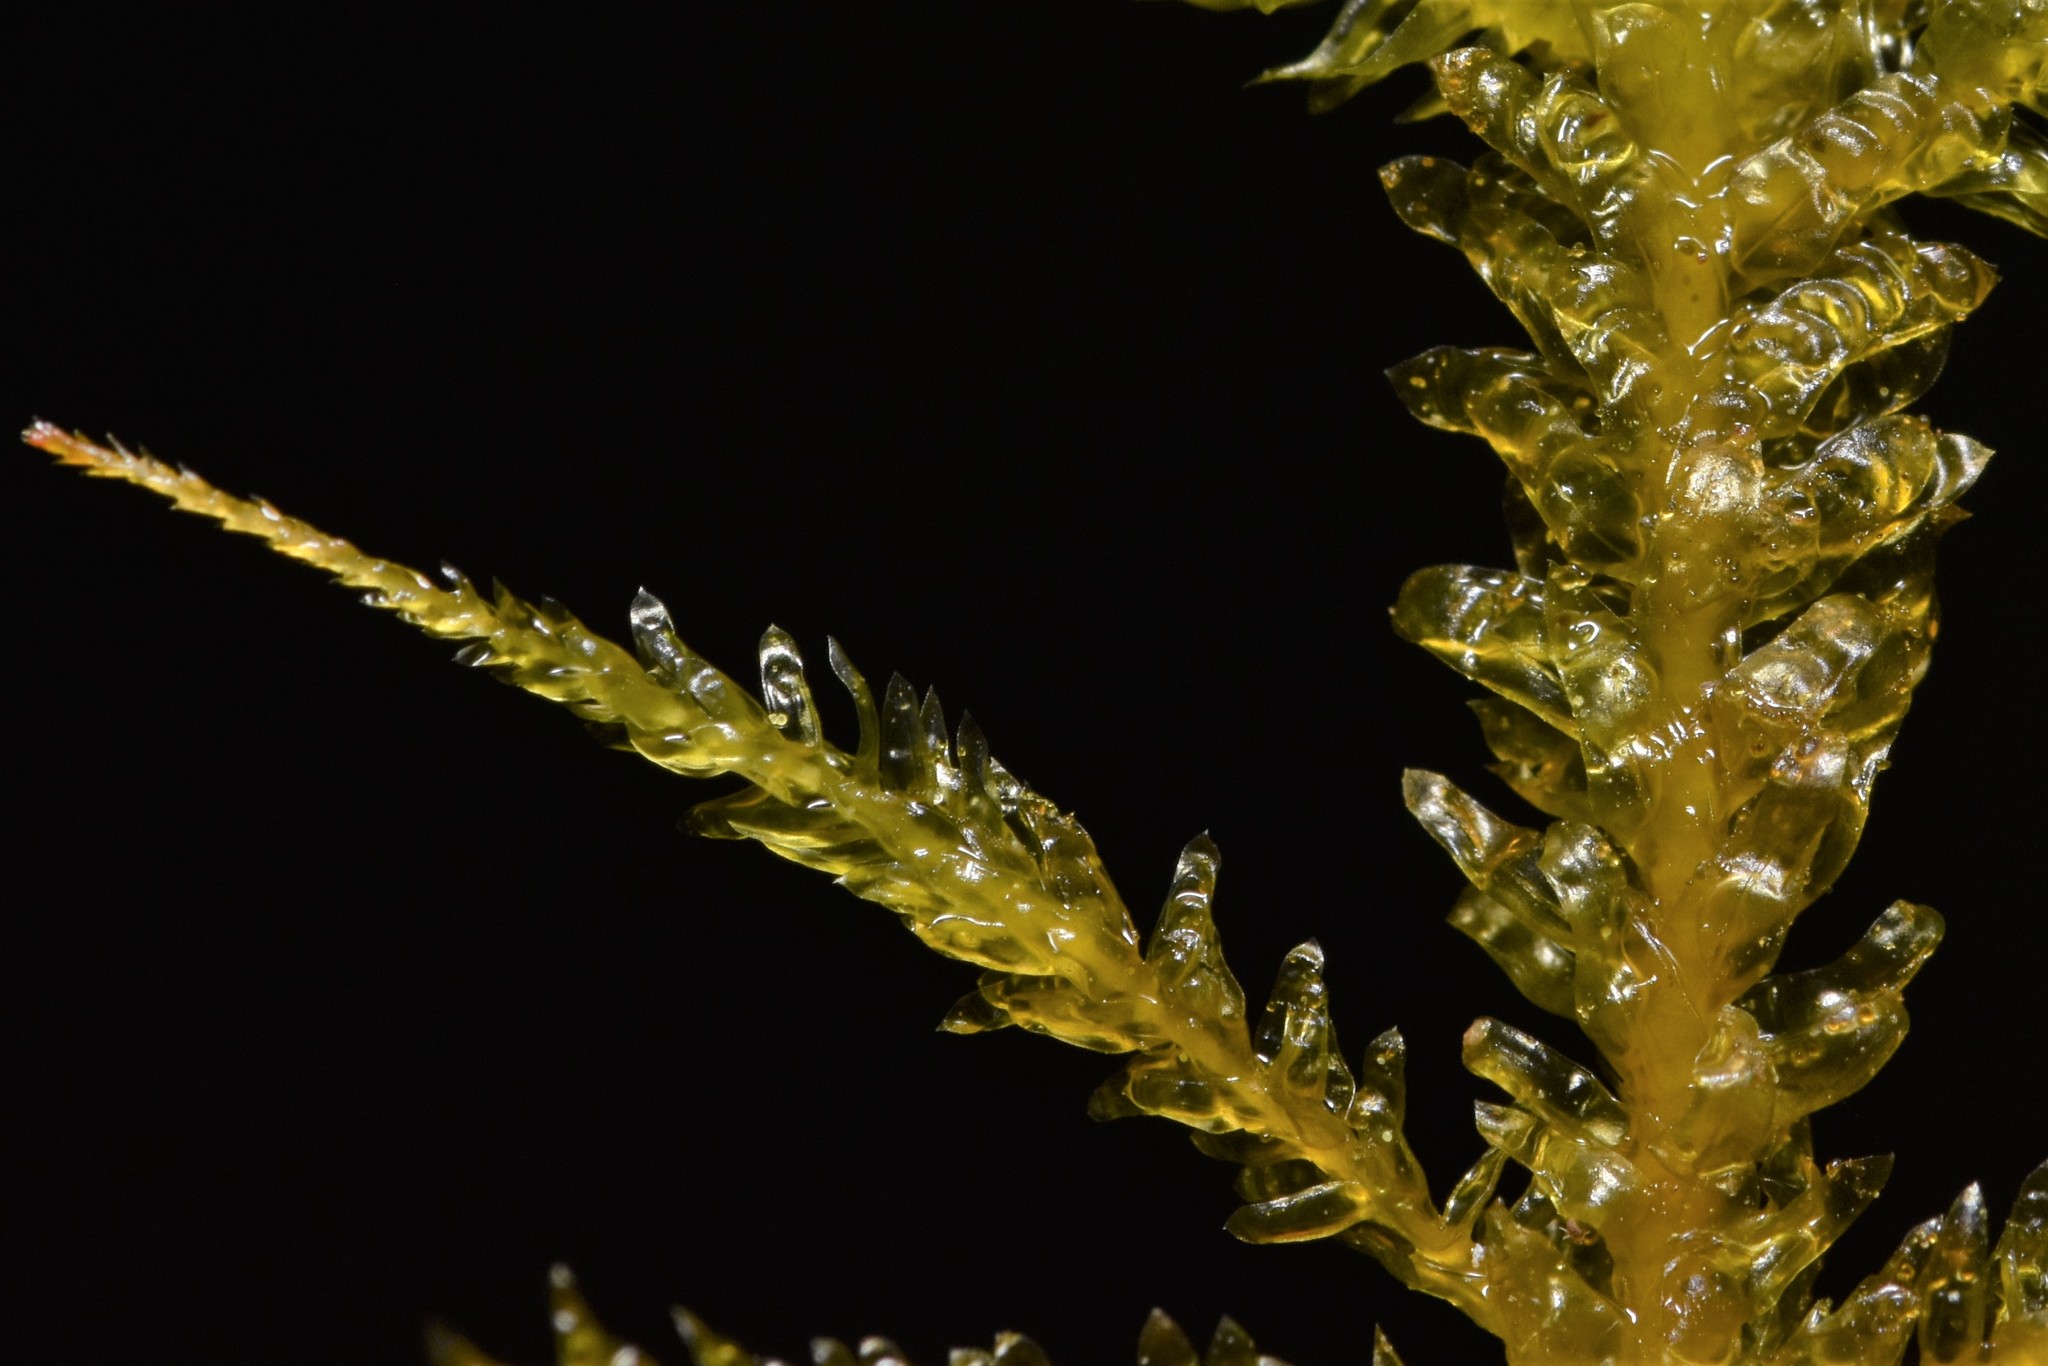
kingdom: Plantae
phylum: Bryophyta
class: Bryopsida
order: Hypnales
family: Neckeraceae
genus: Metaneckera
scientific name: Metaneckera menziesii
